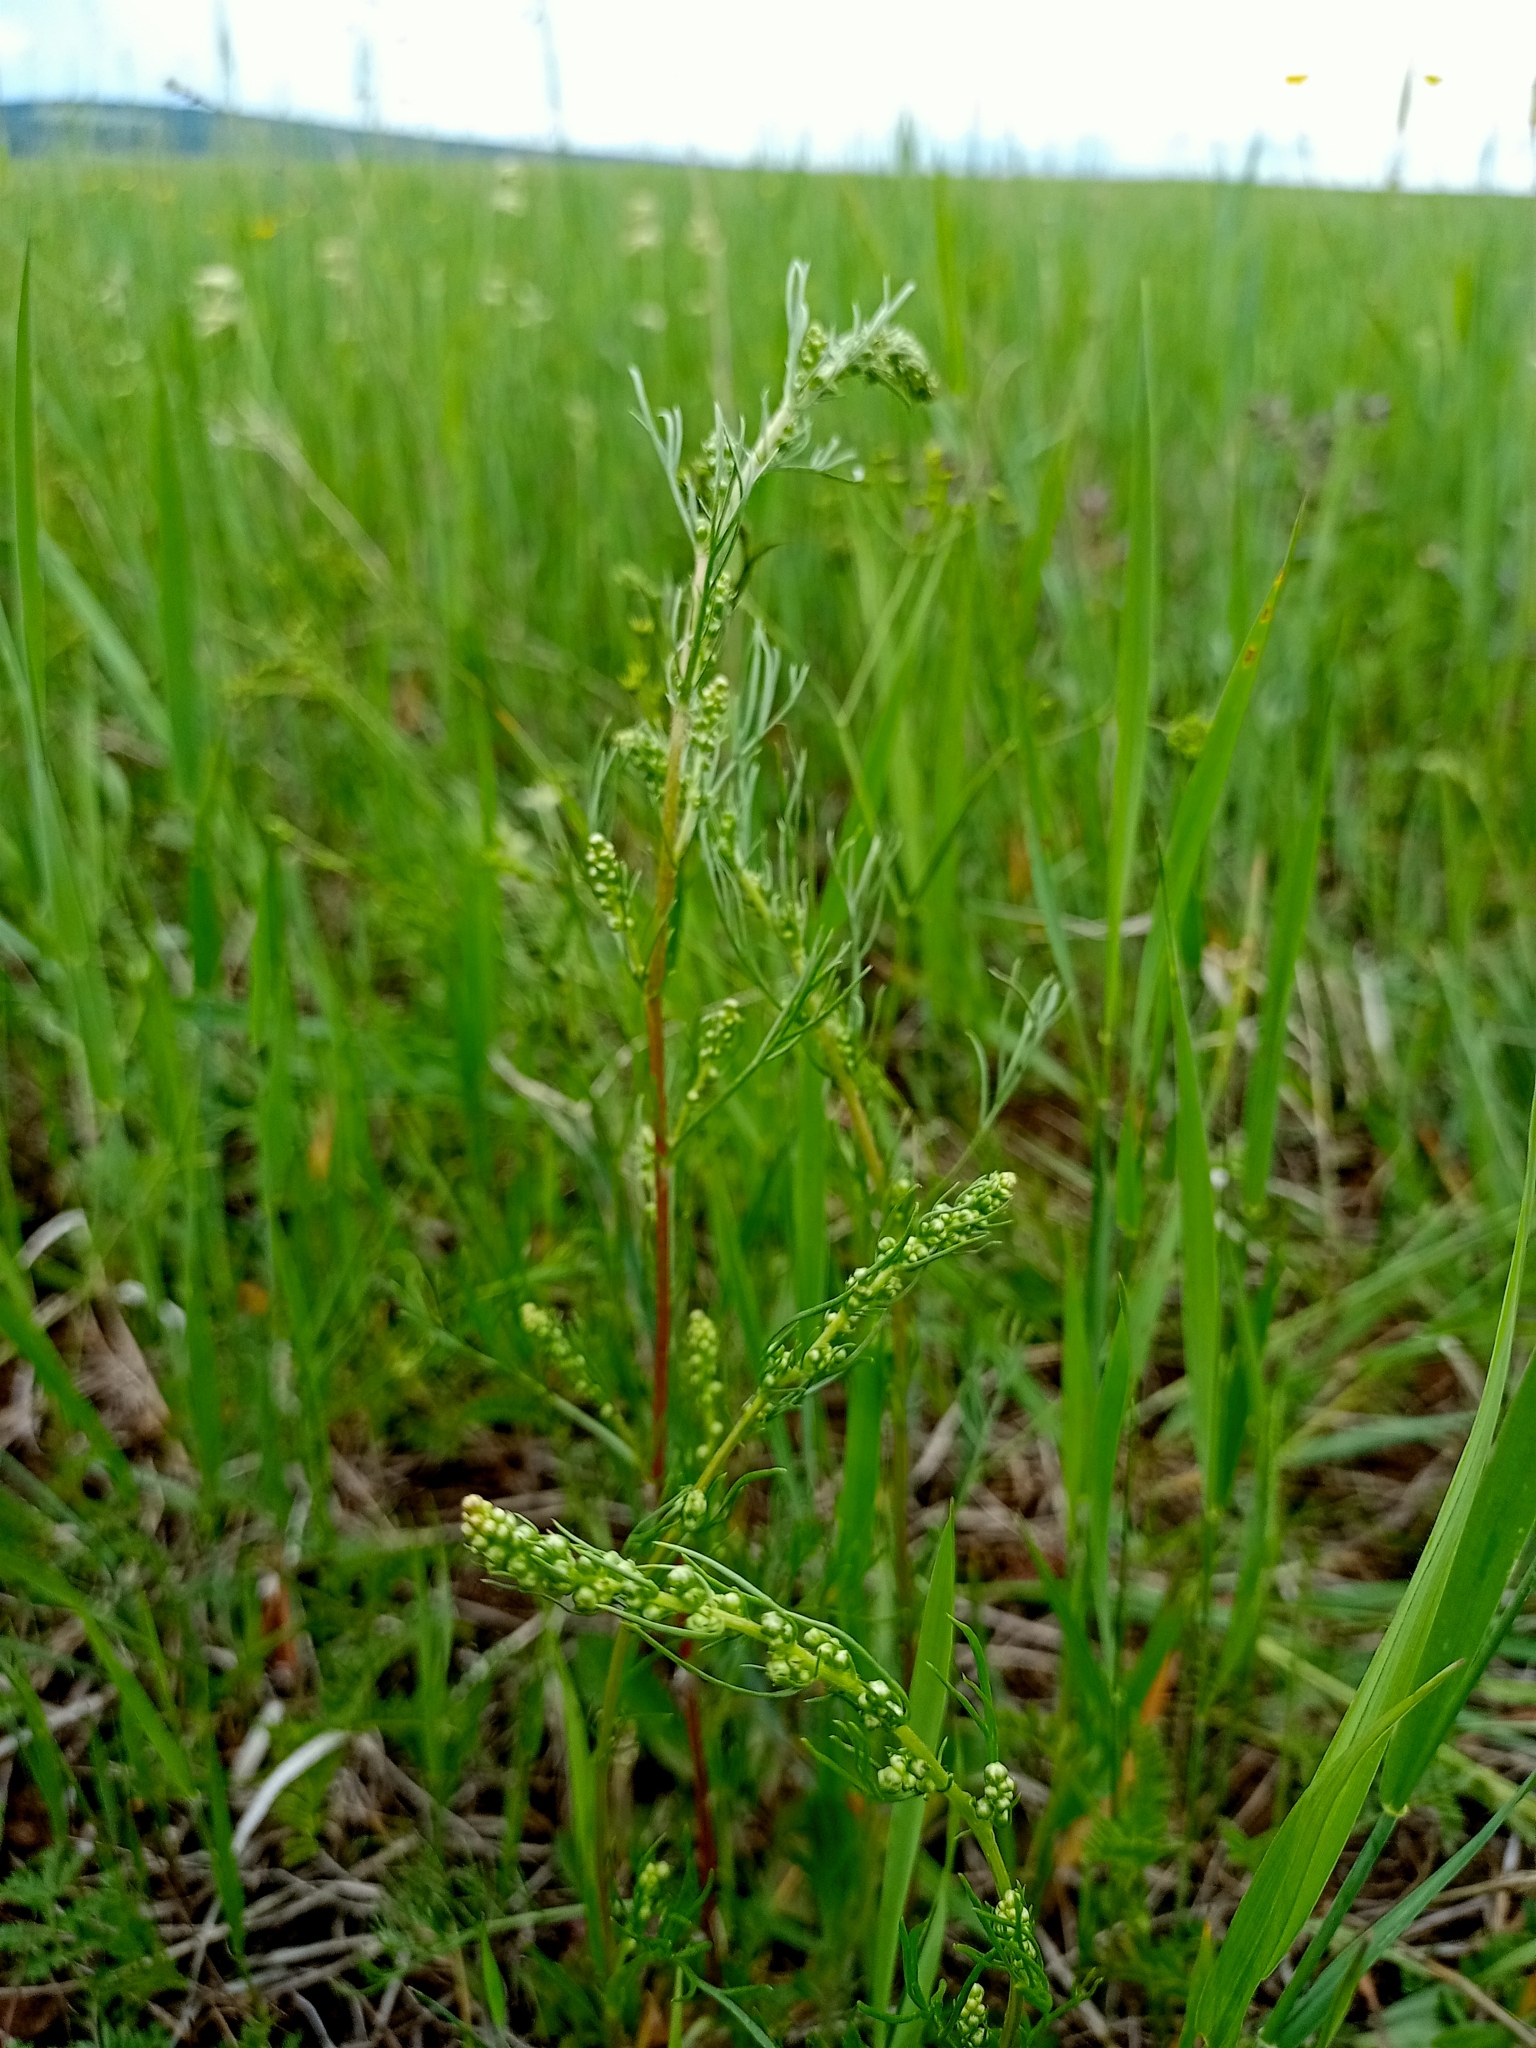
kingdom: Plantae
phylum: Tracheophyta
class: Magnoliopsida
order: Asterales
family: Asteraceae
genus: Artemisia
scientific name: Artemisia pubescens
